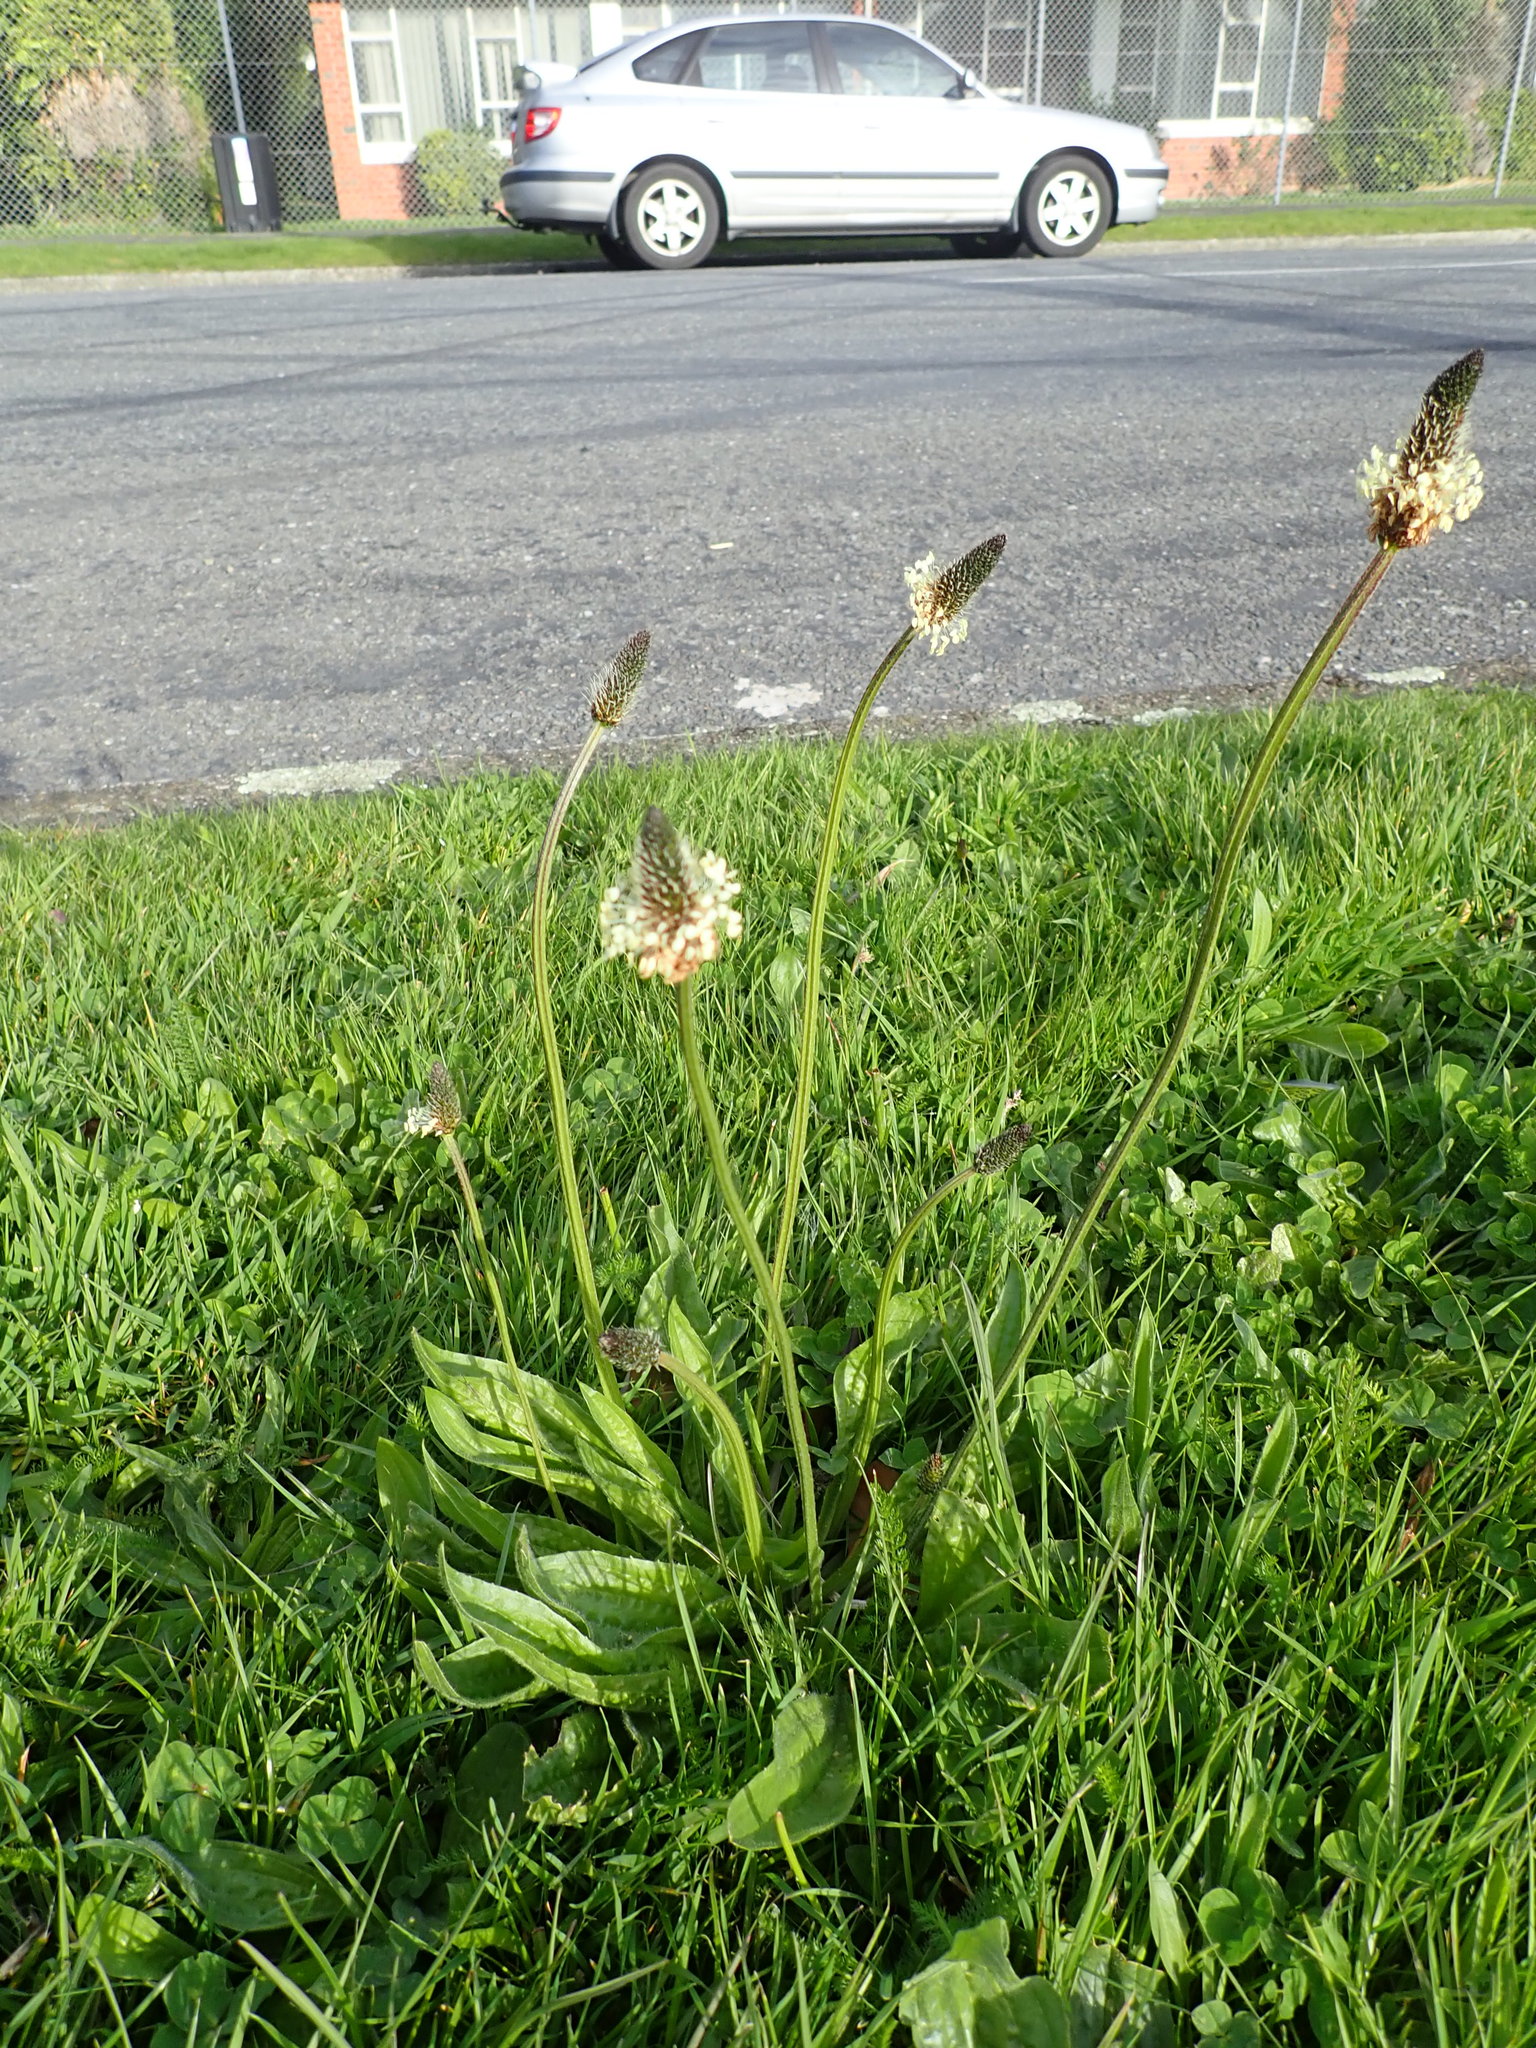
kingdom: Plantae
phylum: Tracheophyta
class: Magnoliopsida
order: Lamiales
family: Plantaginaceae
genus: Plantago
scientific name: Plantago lanceolata
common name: Ribwort plantain
